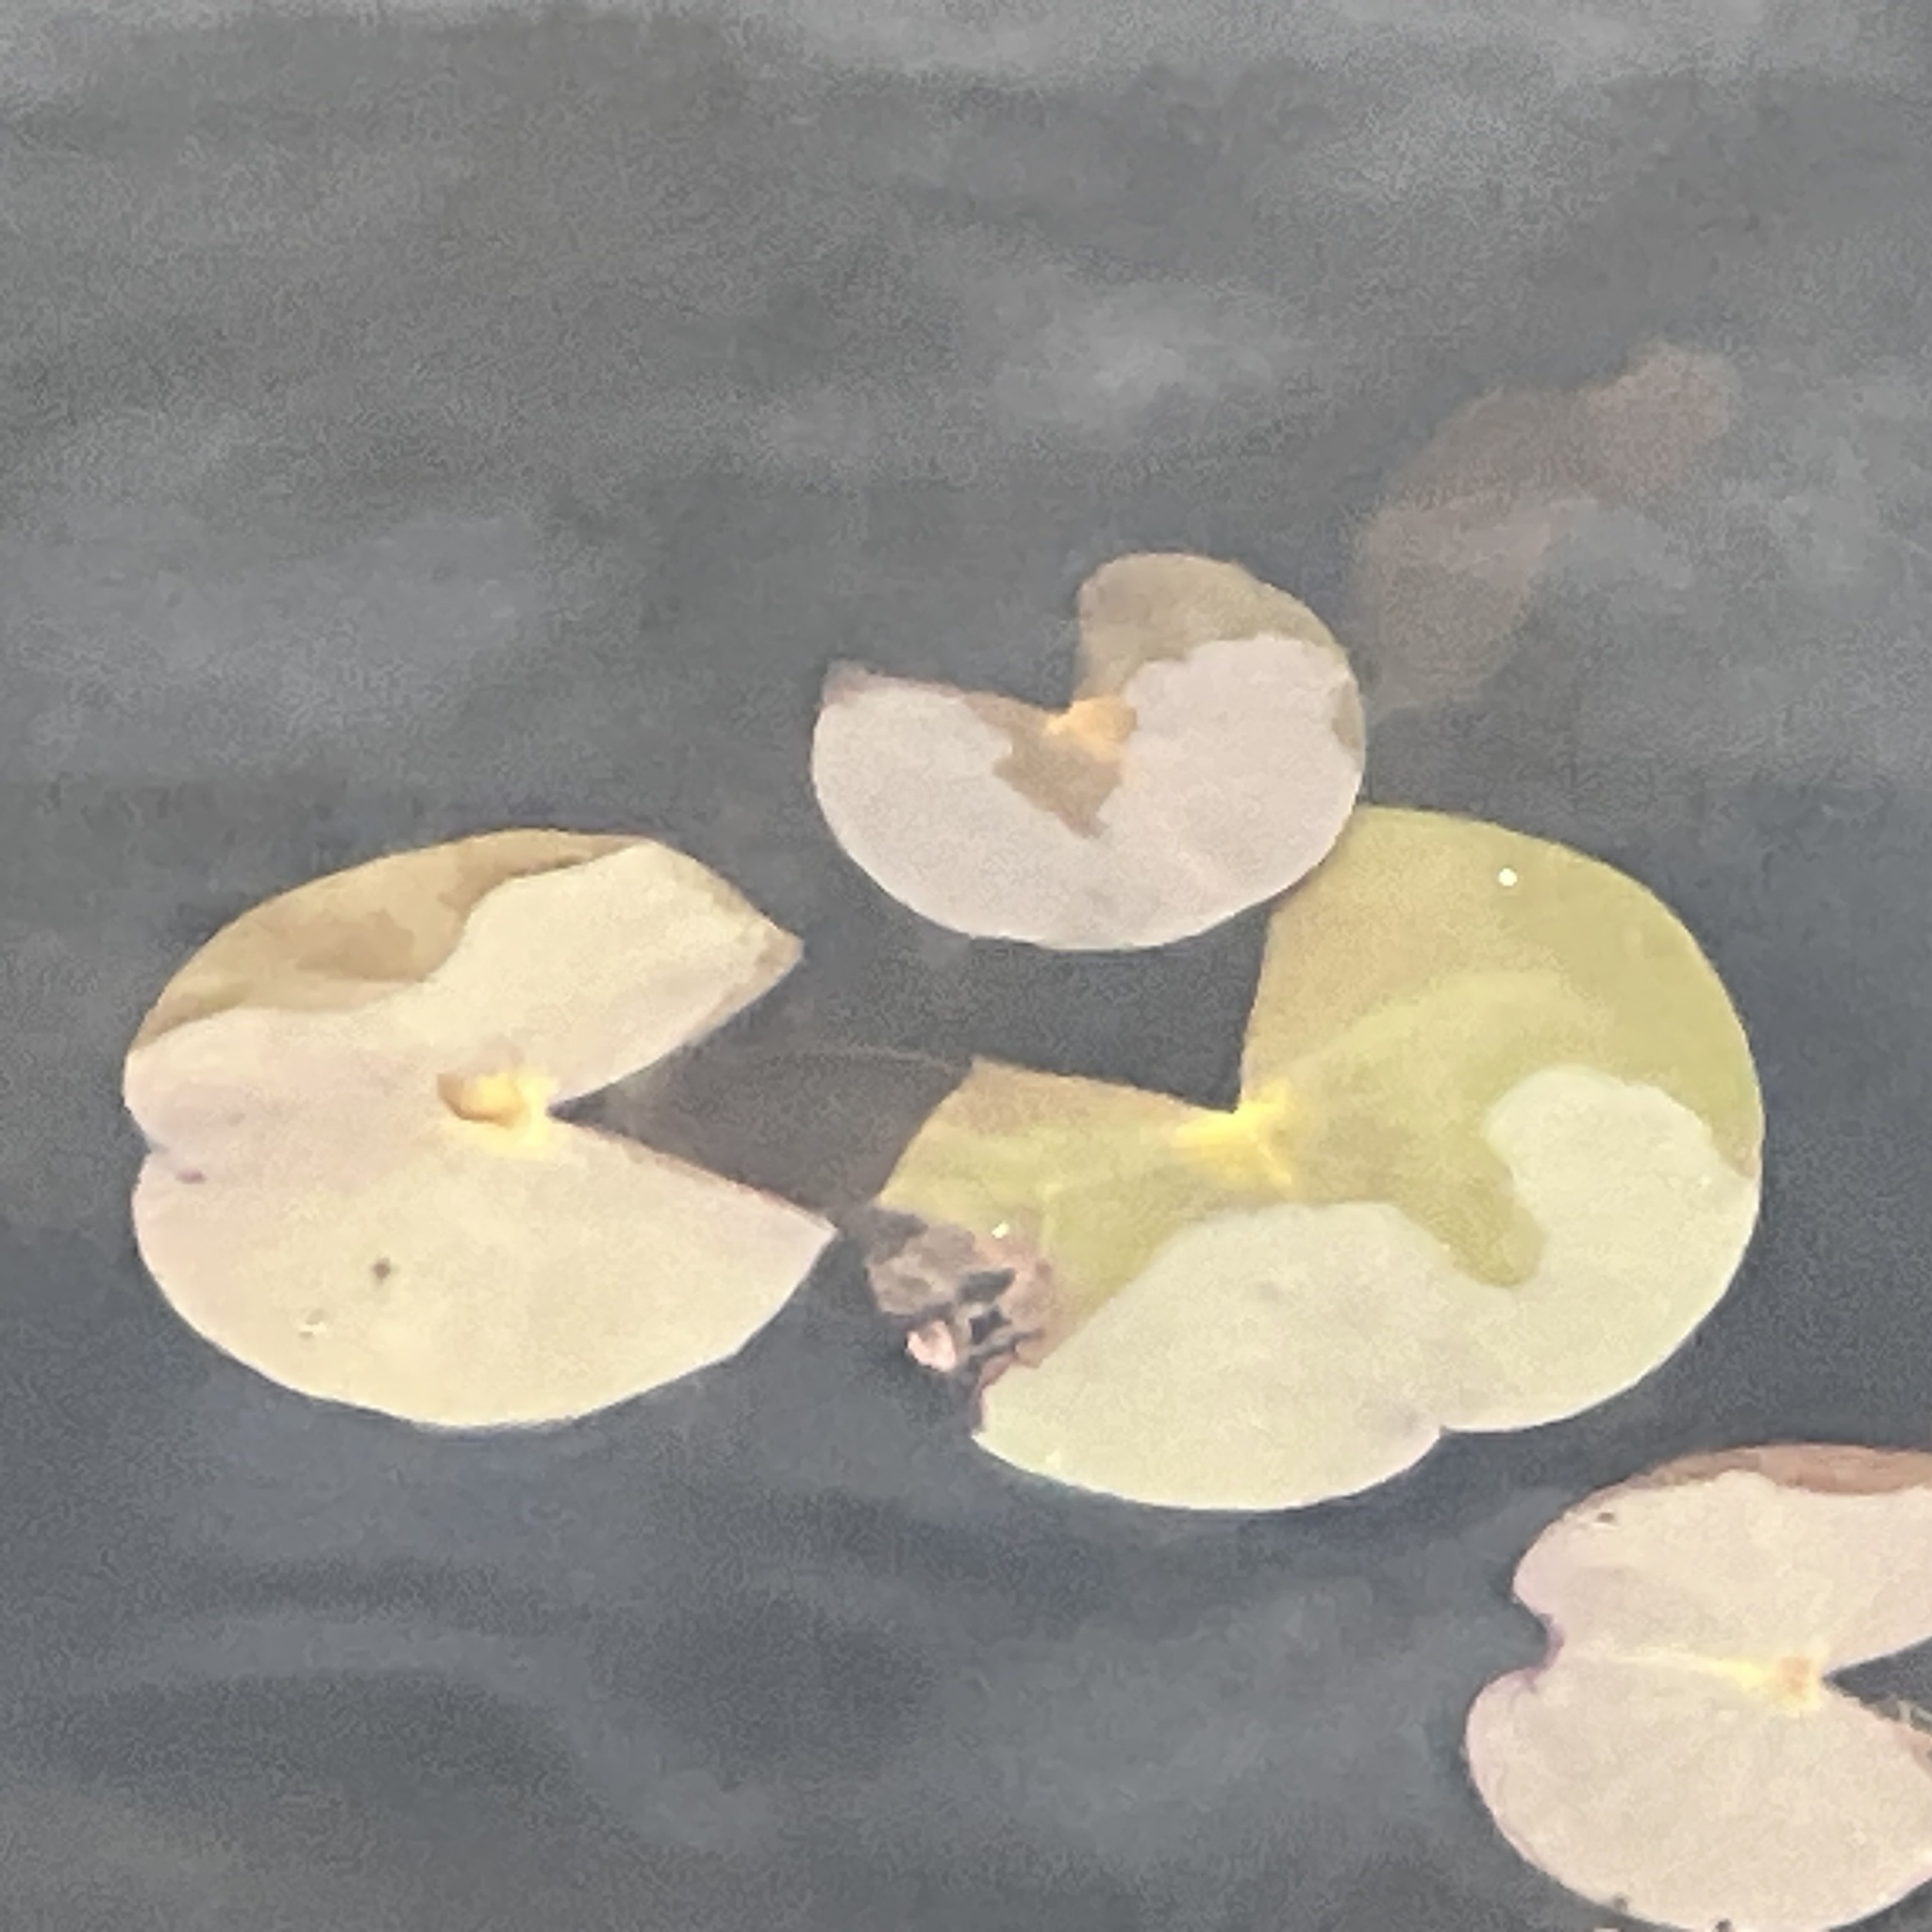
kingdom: Plantae
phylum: Tracheophyta
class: Magnoliopsida
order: Nymphaeales
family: Nymphaeaceae
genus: Nymphaea
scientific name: Nymphaea odorata
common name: Fragrant water-lily
